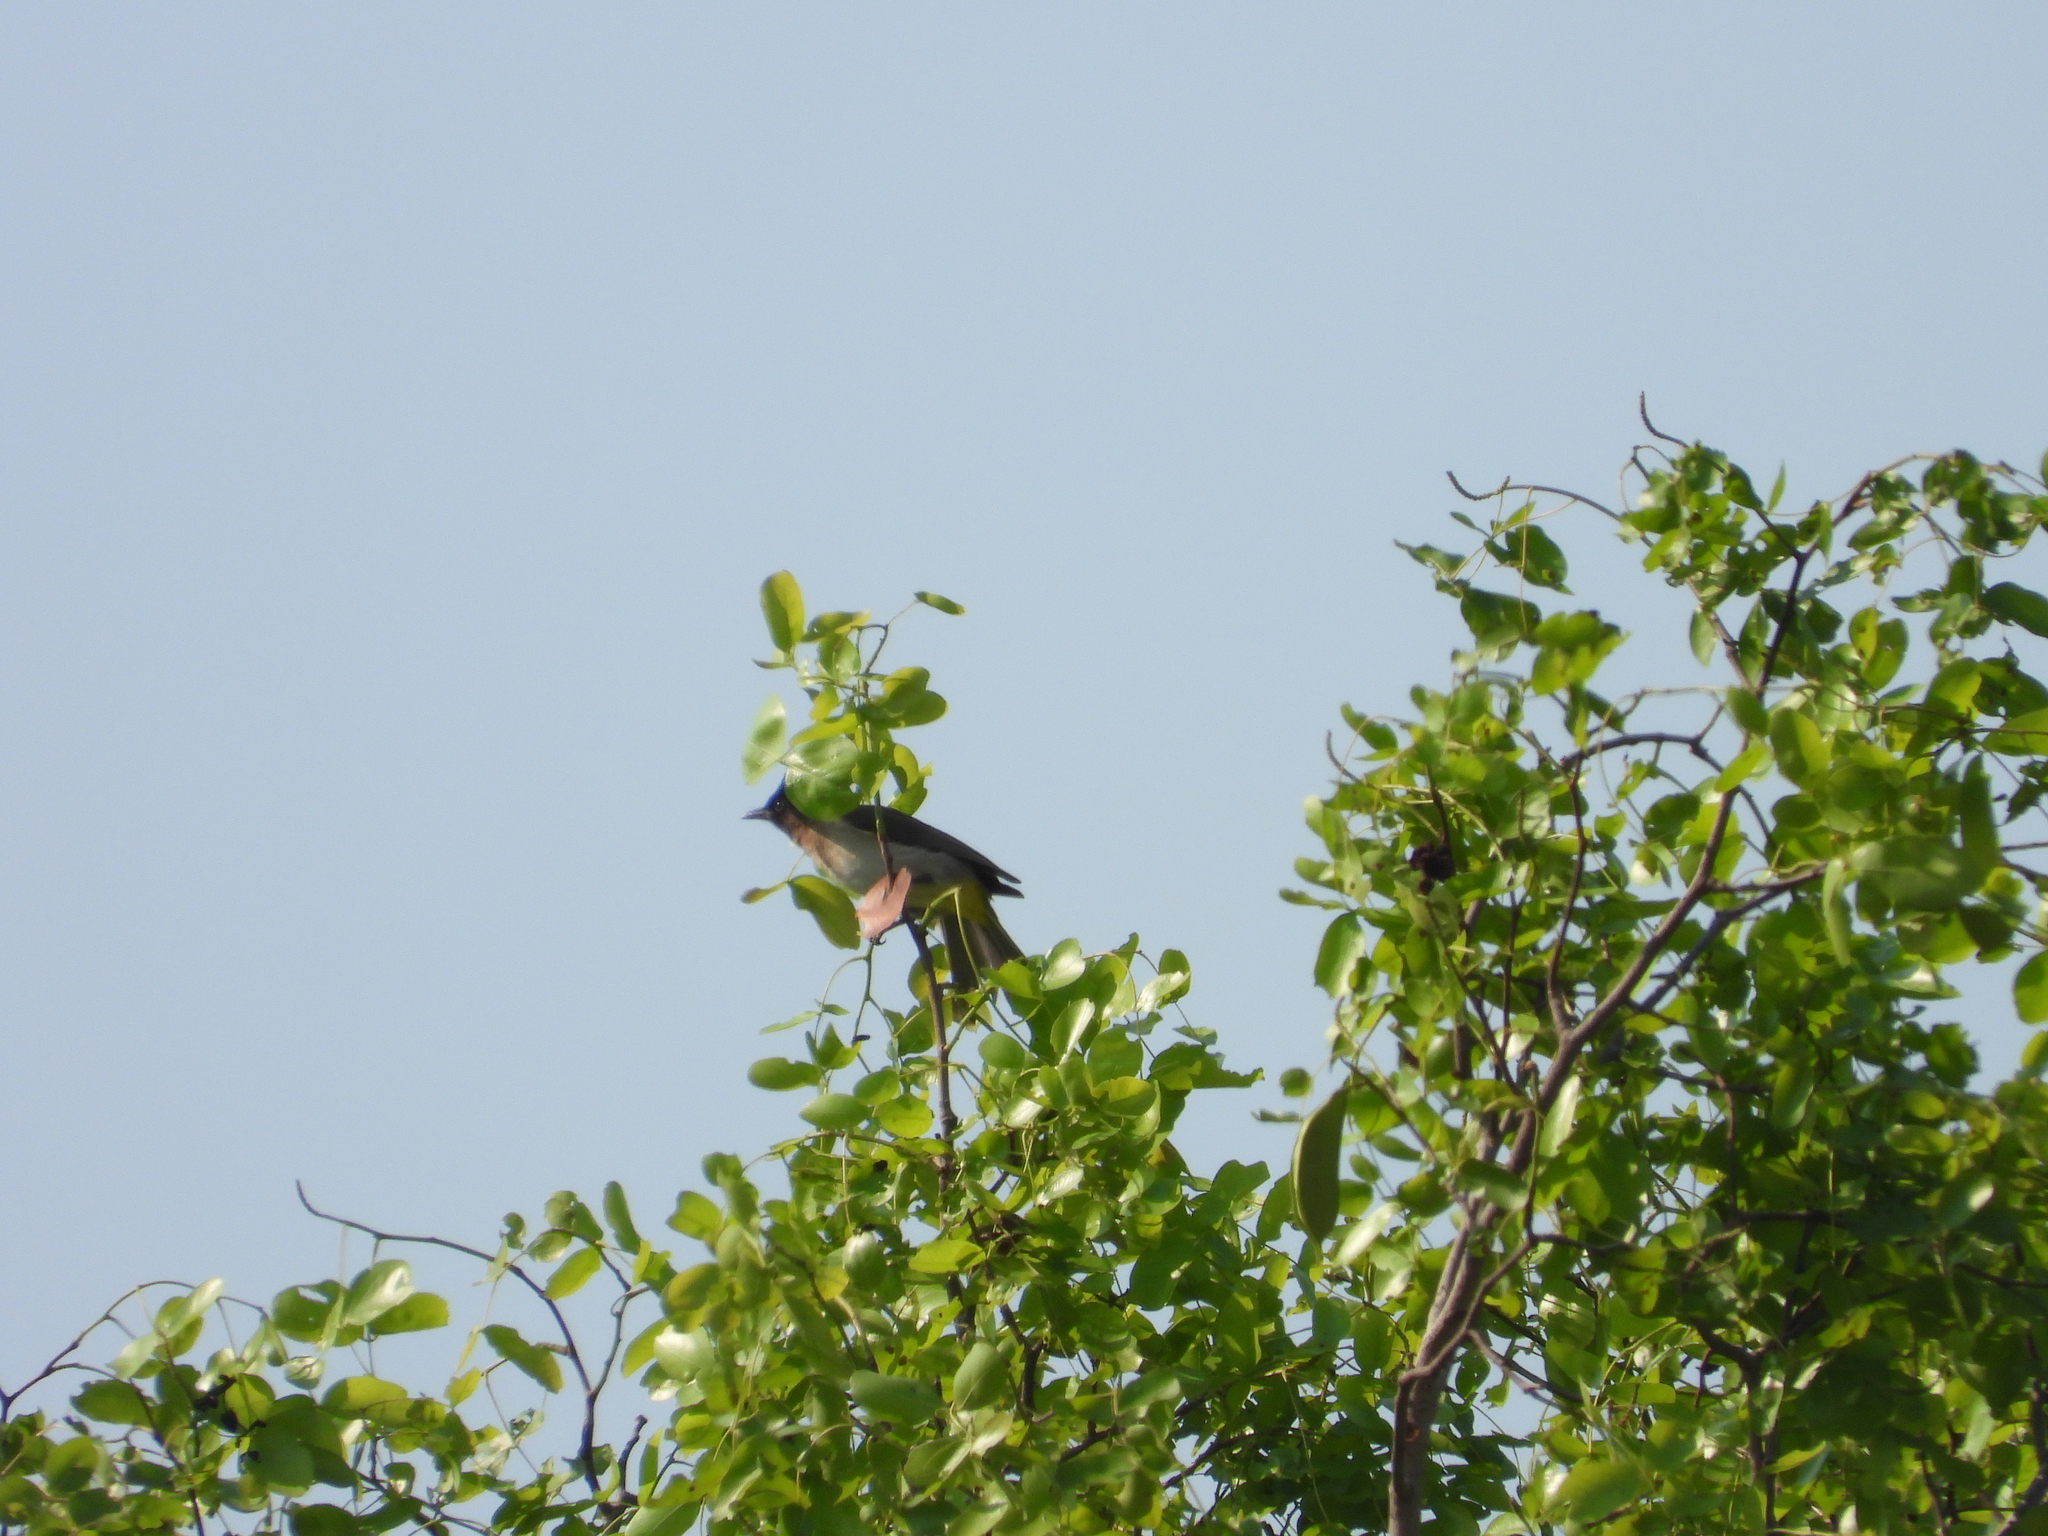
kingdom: Animalia
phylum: Chordata
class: Aves
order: Passeriformes
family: Pycnonotidae
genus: Pycnonotus
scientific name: Pycnonotus barbatus
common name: Common bulbul
